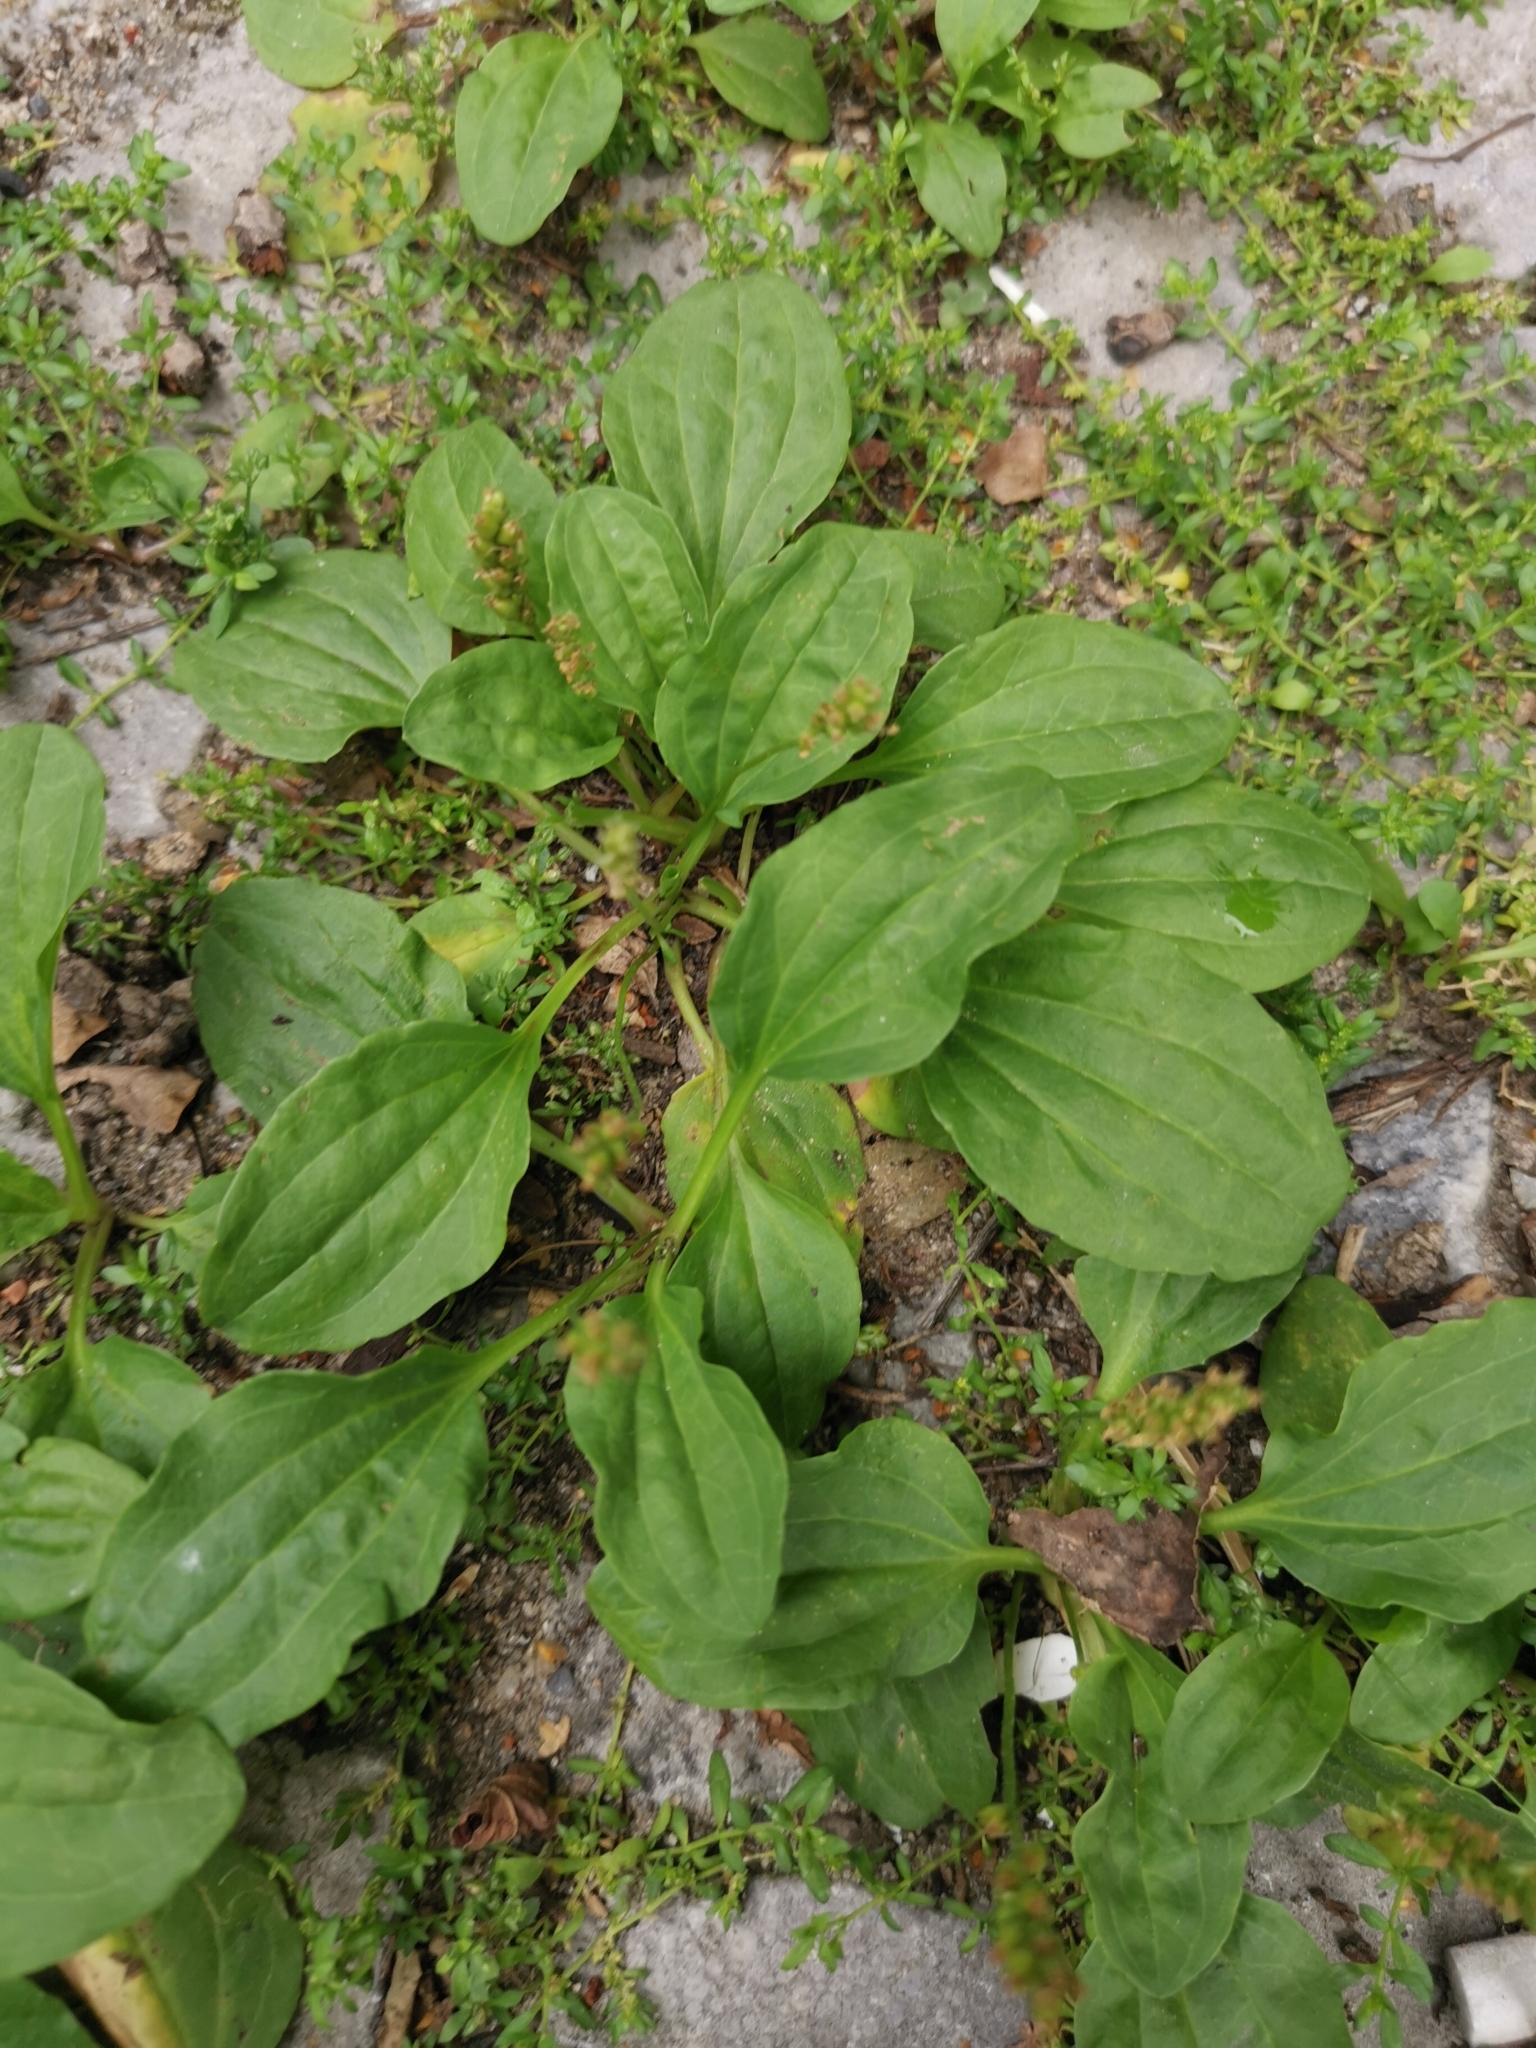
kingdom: Plantae
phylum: Tracheophyta
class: Magnoliopsida
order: Lamiales
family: Plantaginaceae
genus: Plantago
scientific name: Plantago major
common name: Common plantain
